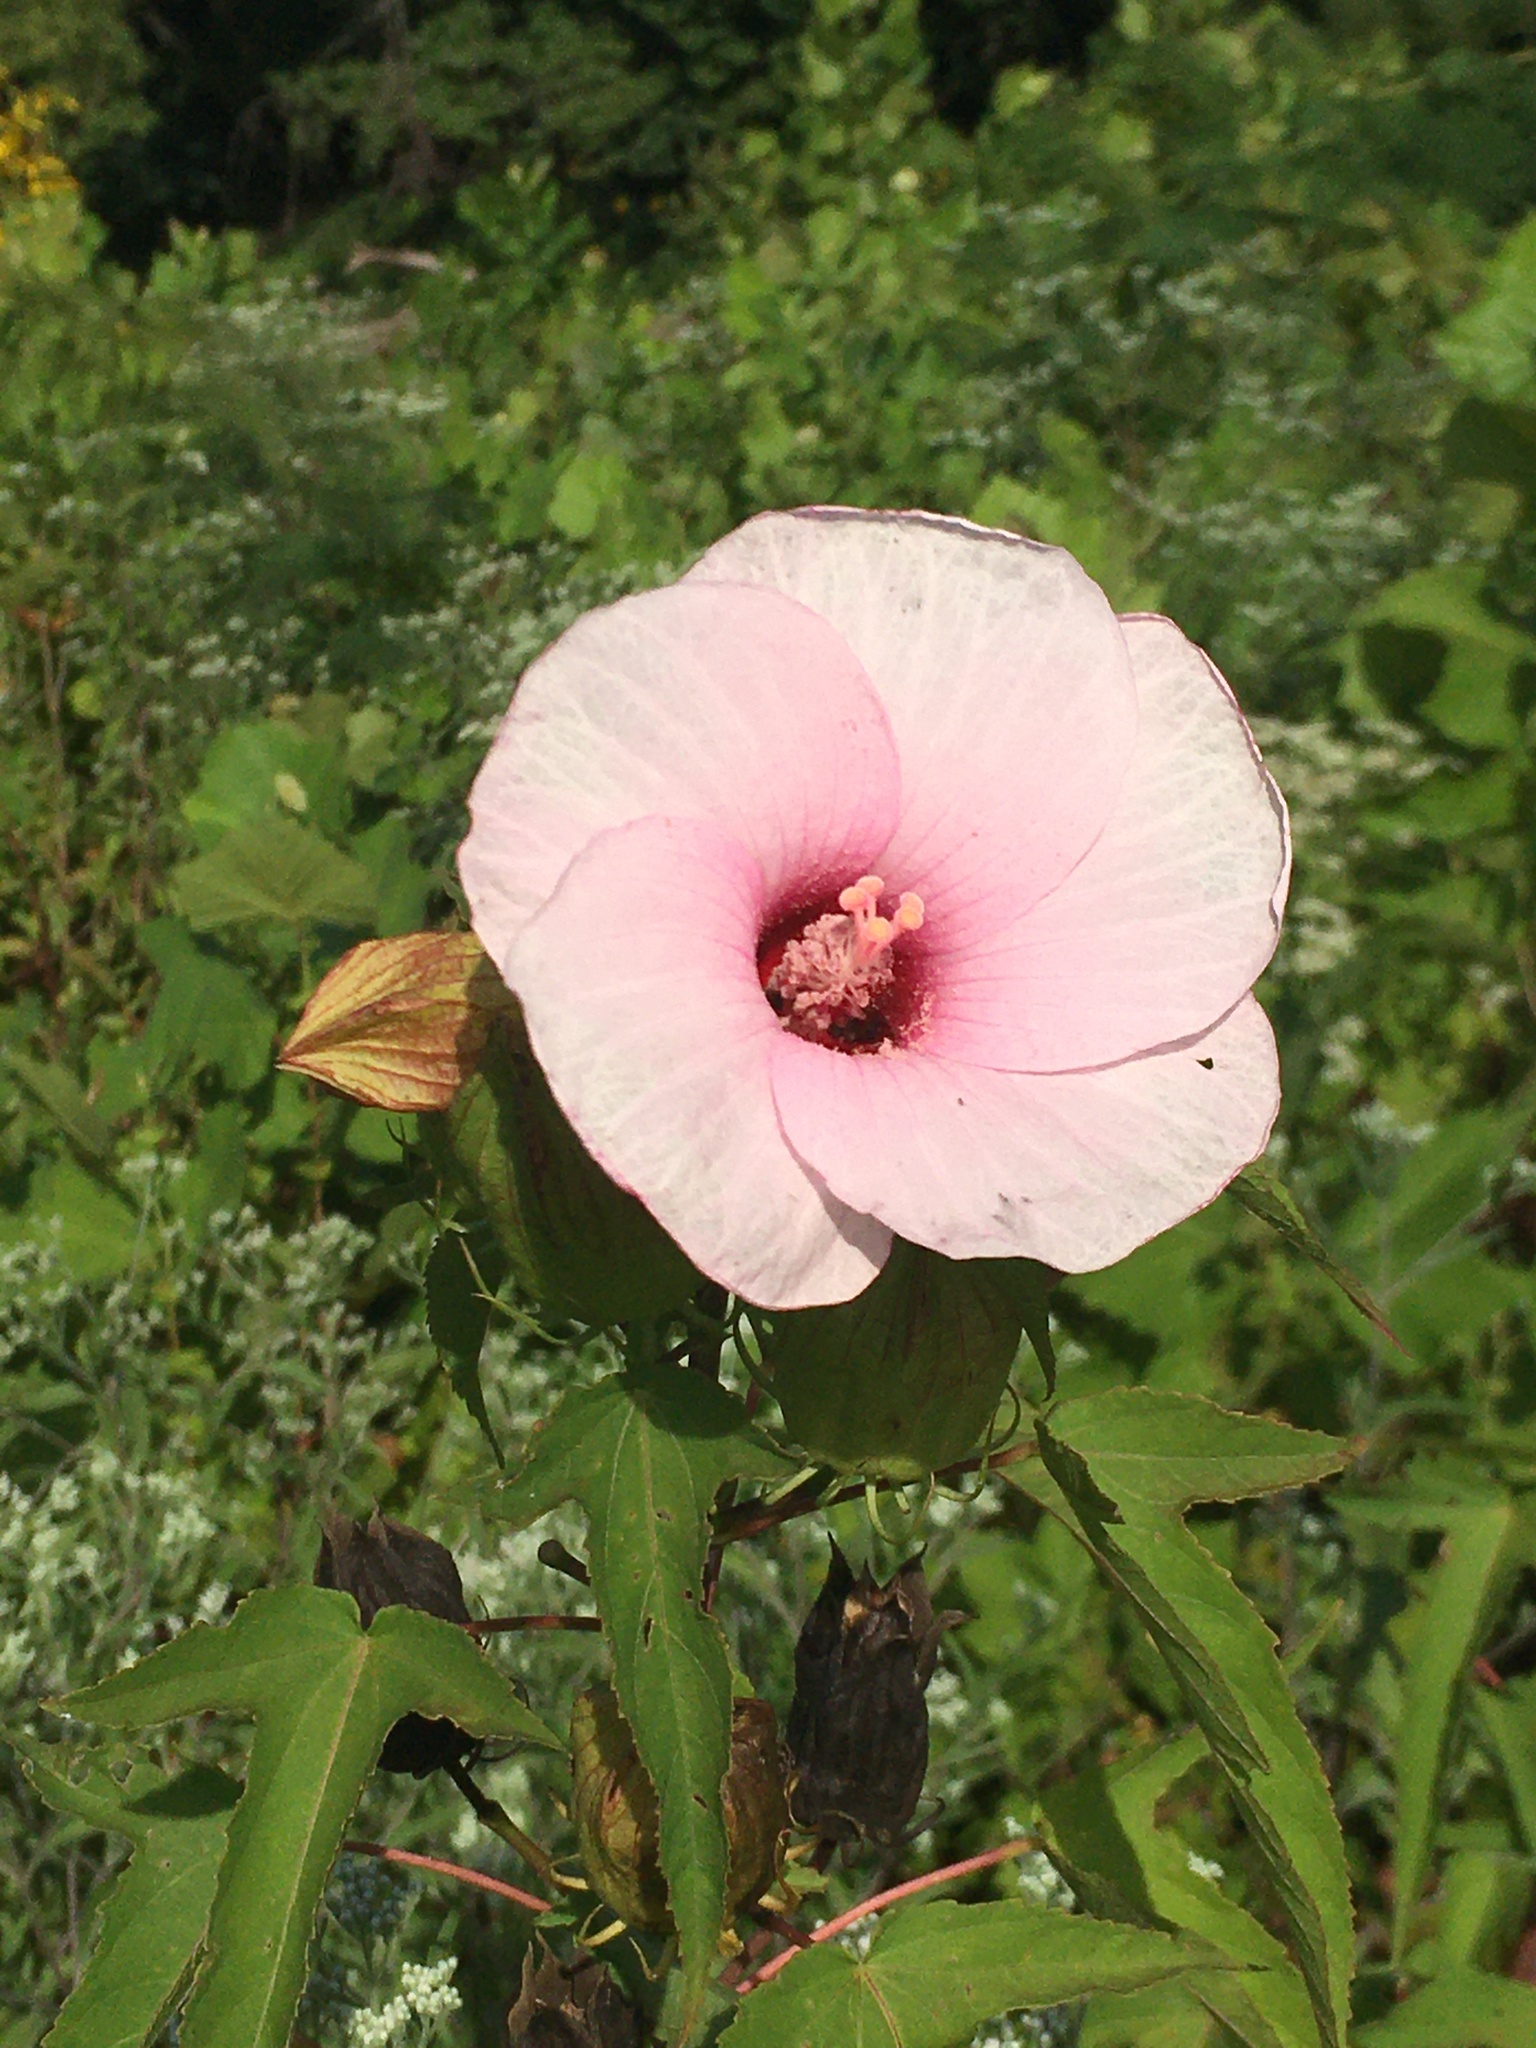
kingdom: Plantae
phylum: Tracheophyta
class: Magnoliopsida
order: Malvales
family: Malvaceae
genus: Hibiscus
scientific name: Hibiscus laevis
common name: Scarlet rose-mallow
